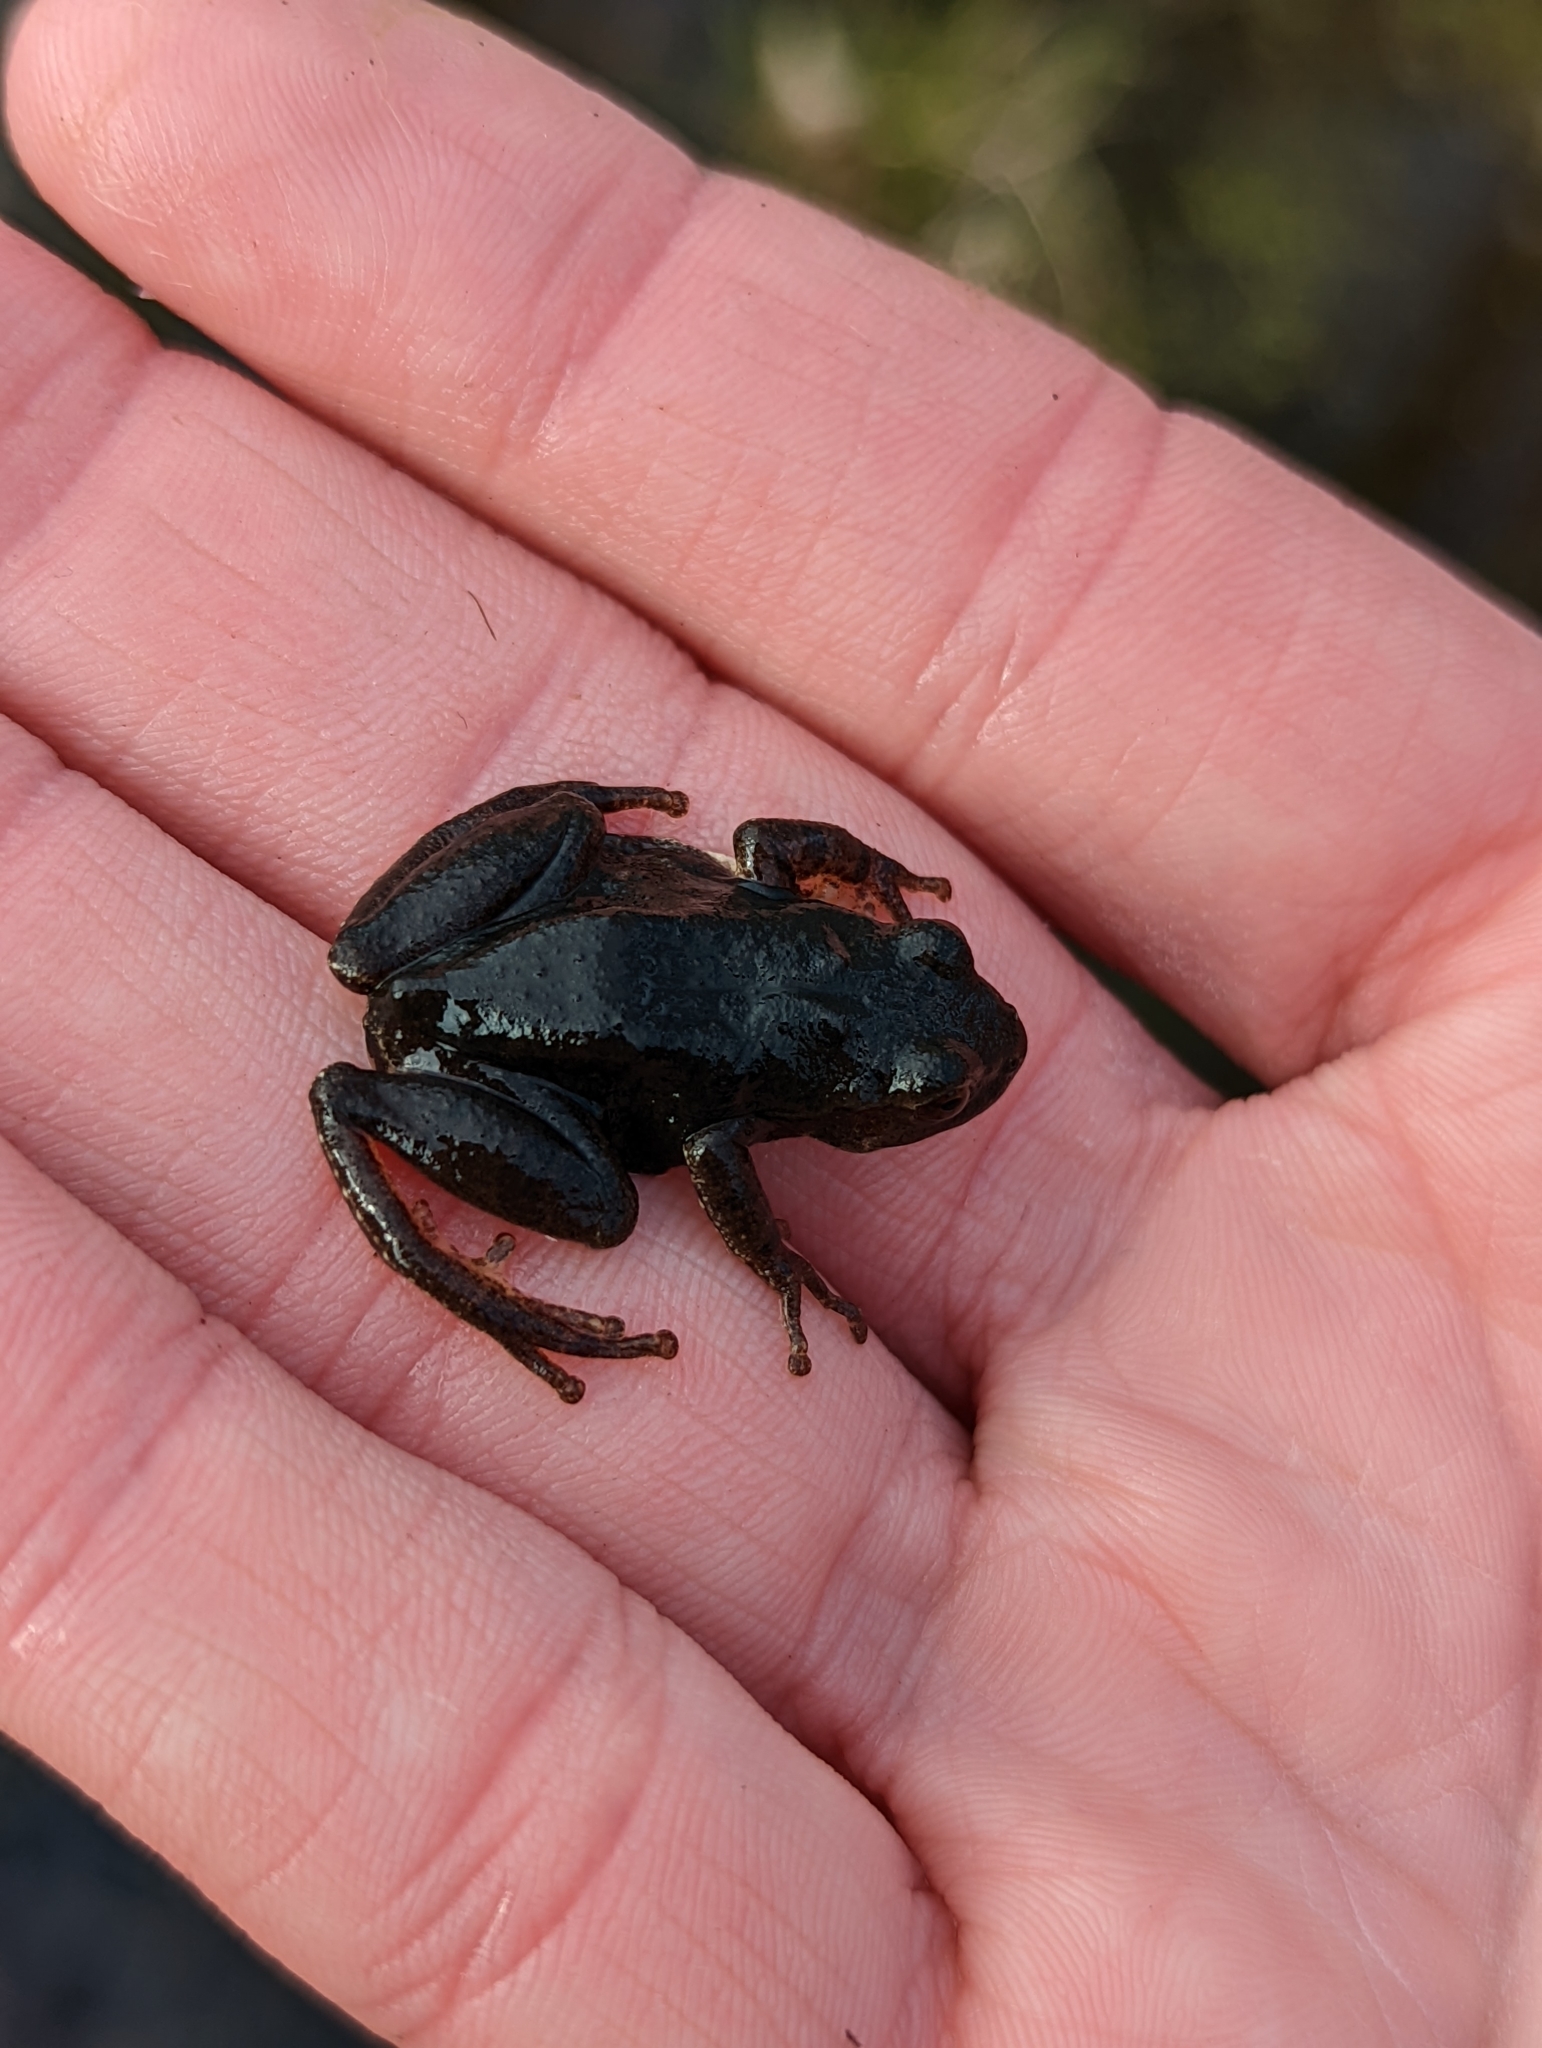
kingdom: Animalia
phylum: Chordata
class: Amphibia
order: Anura
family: Hylidae
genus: Pseudacris
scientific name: Pseudacris crucifer
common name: Spring peeper
